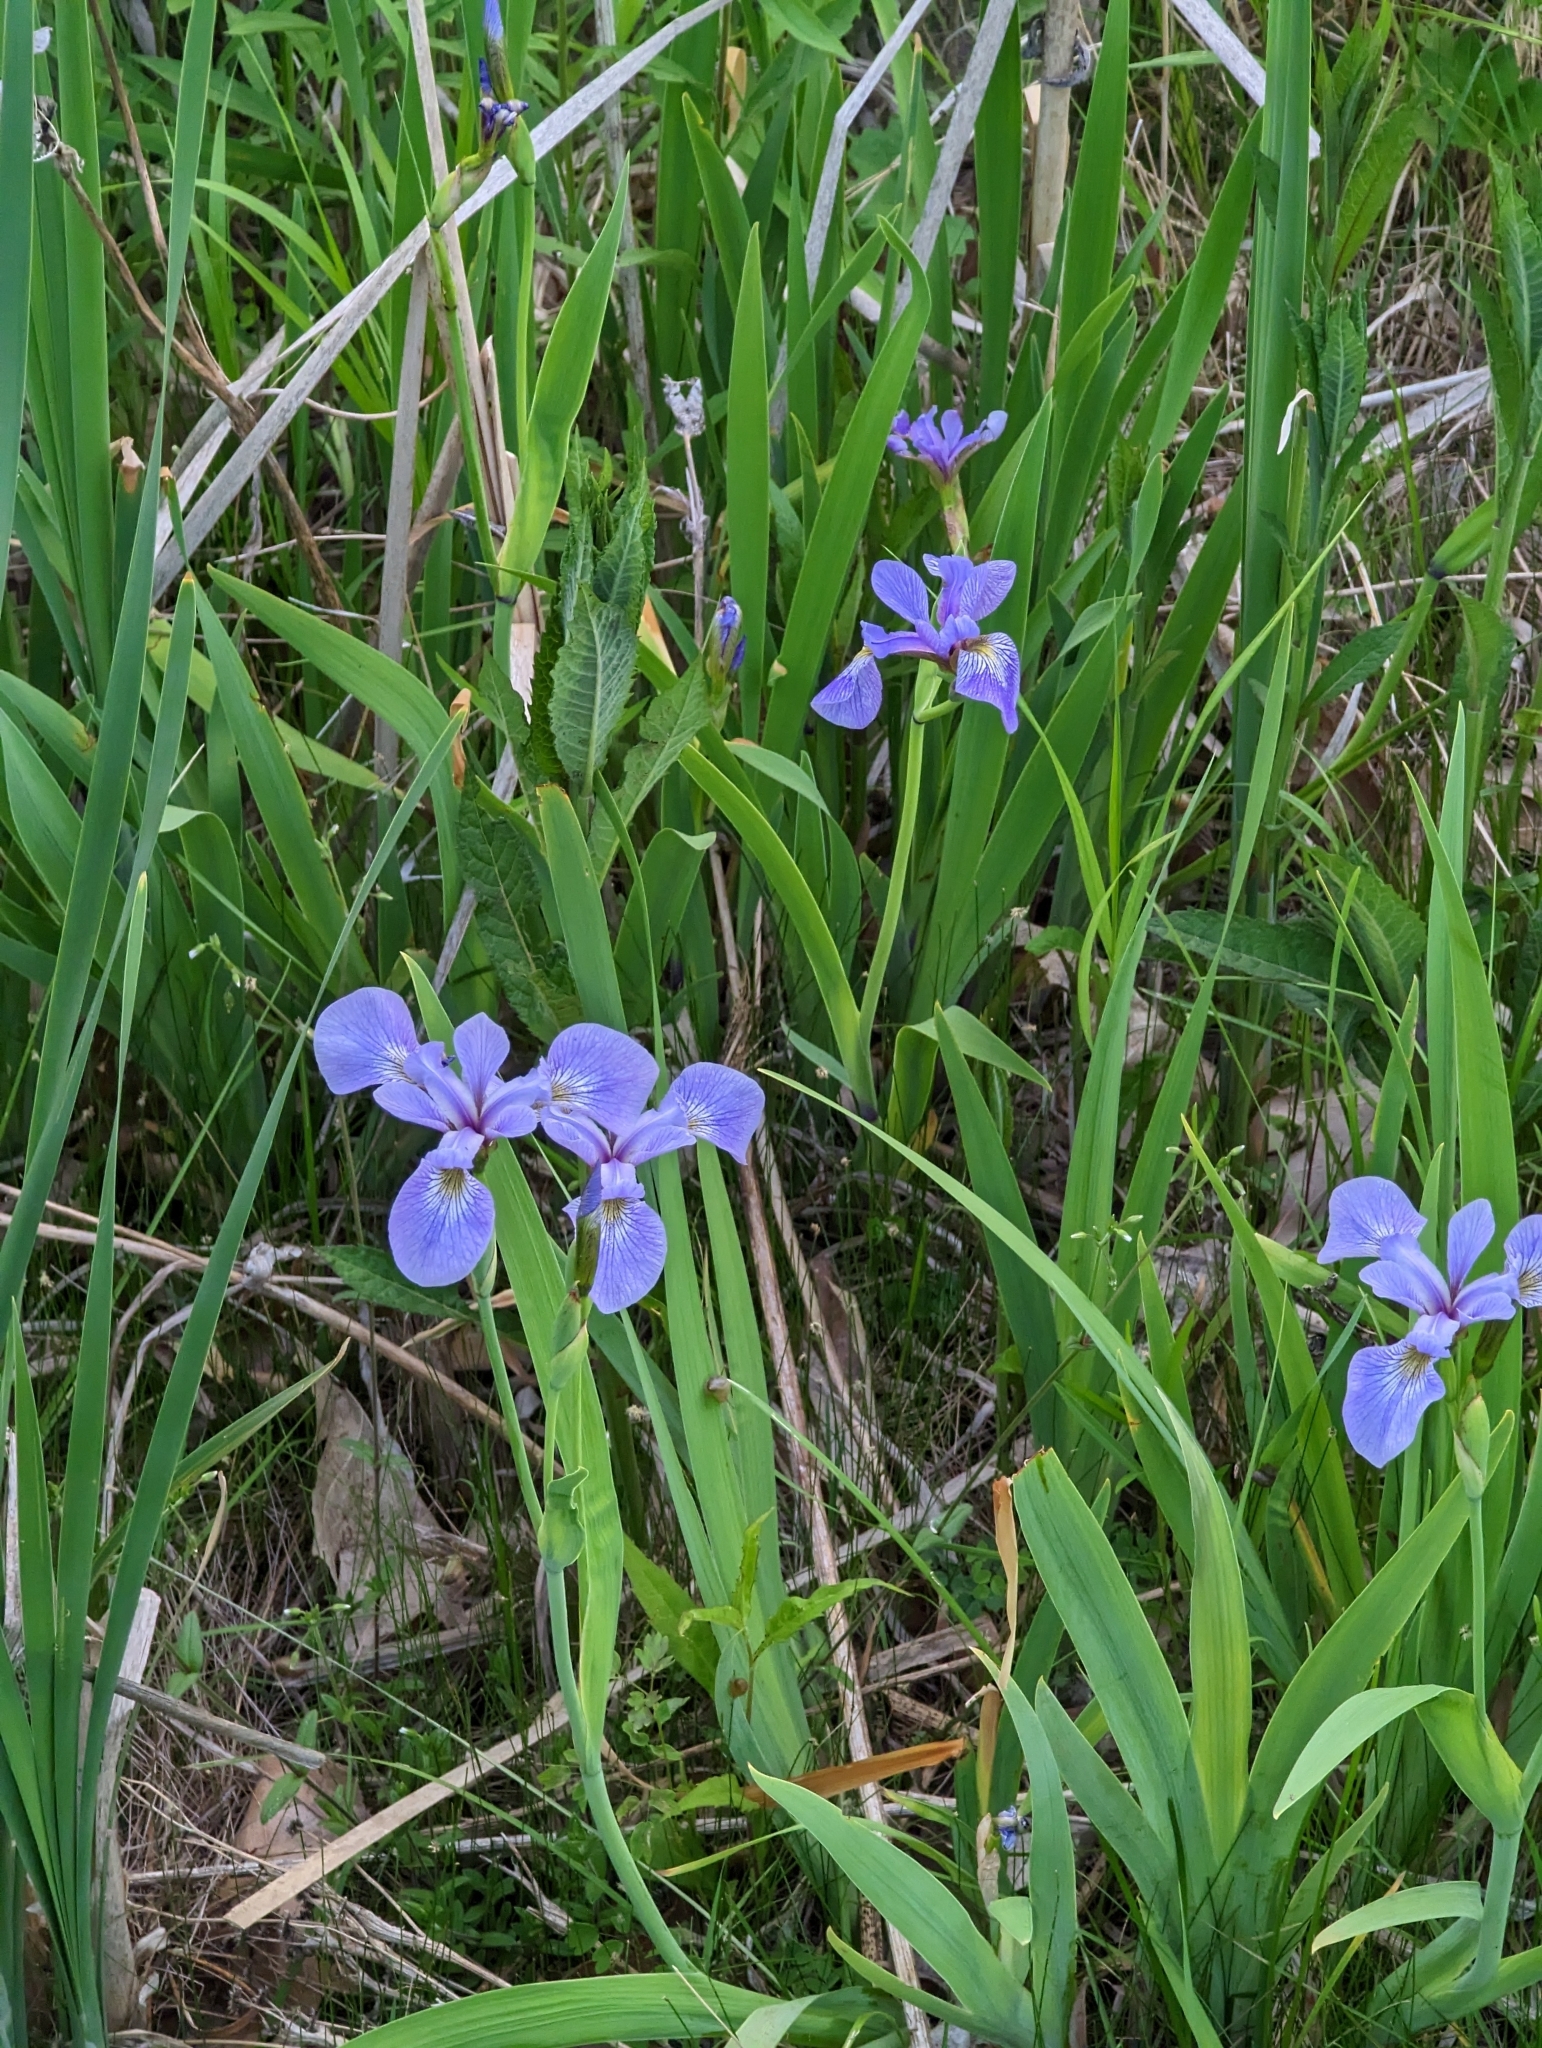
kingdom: Plantae
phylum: Tracheophyta
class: Liliopsida
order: Asparagales
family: Iridaceae
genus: Iris
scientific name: Iris versicolor
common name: Purple iris
